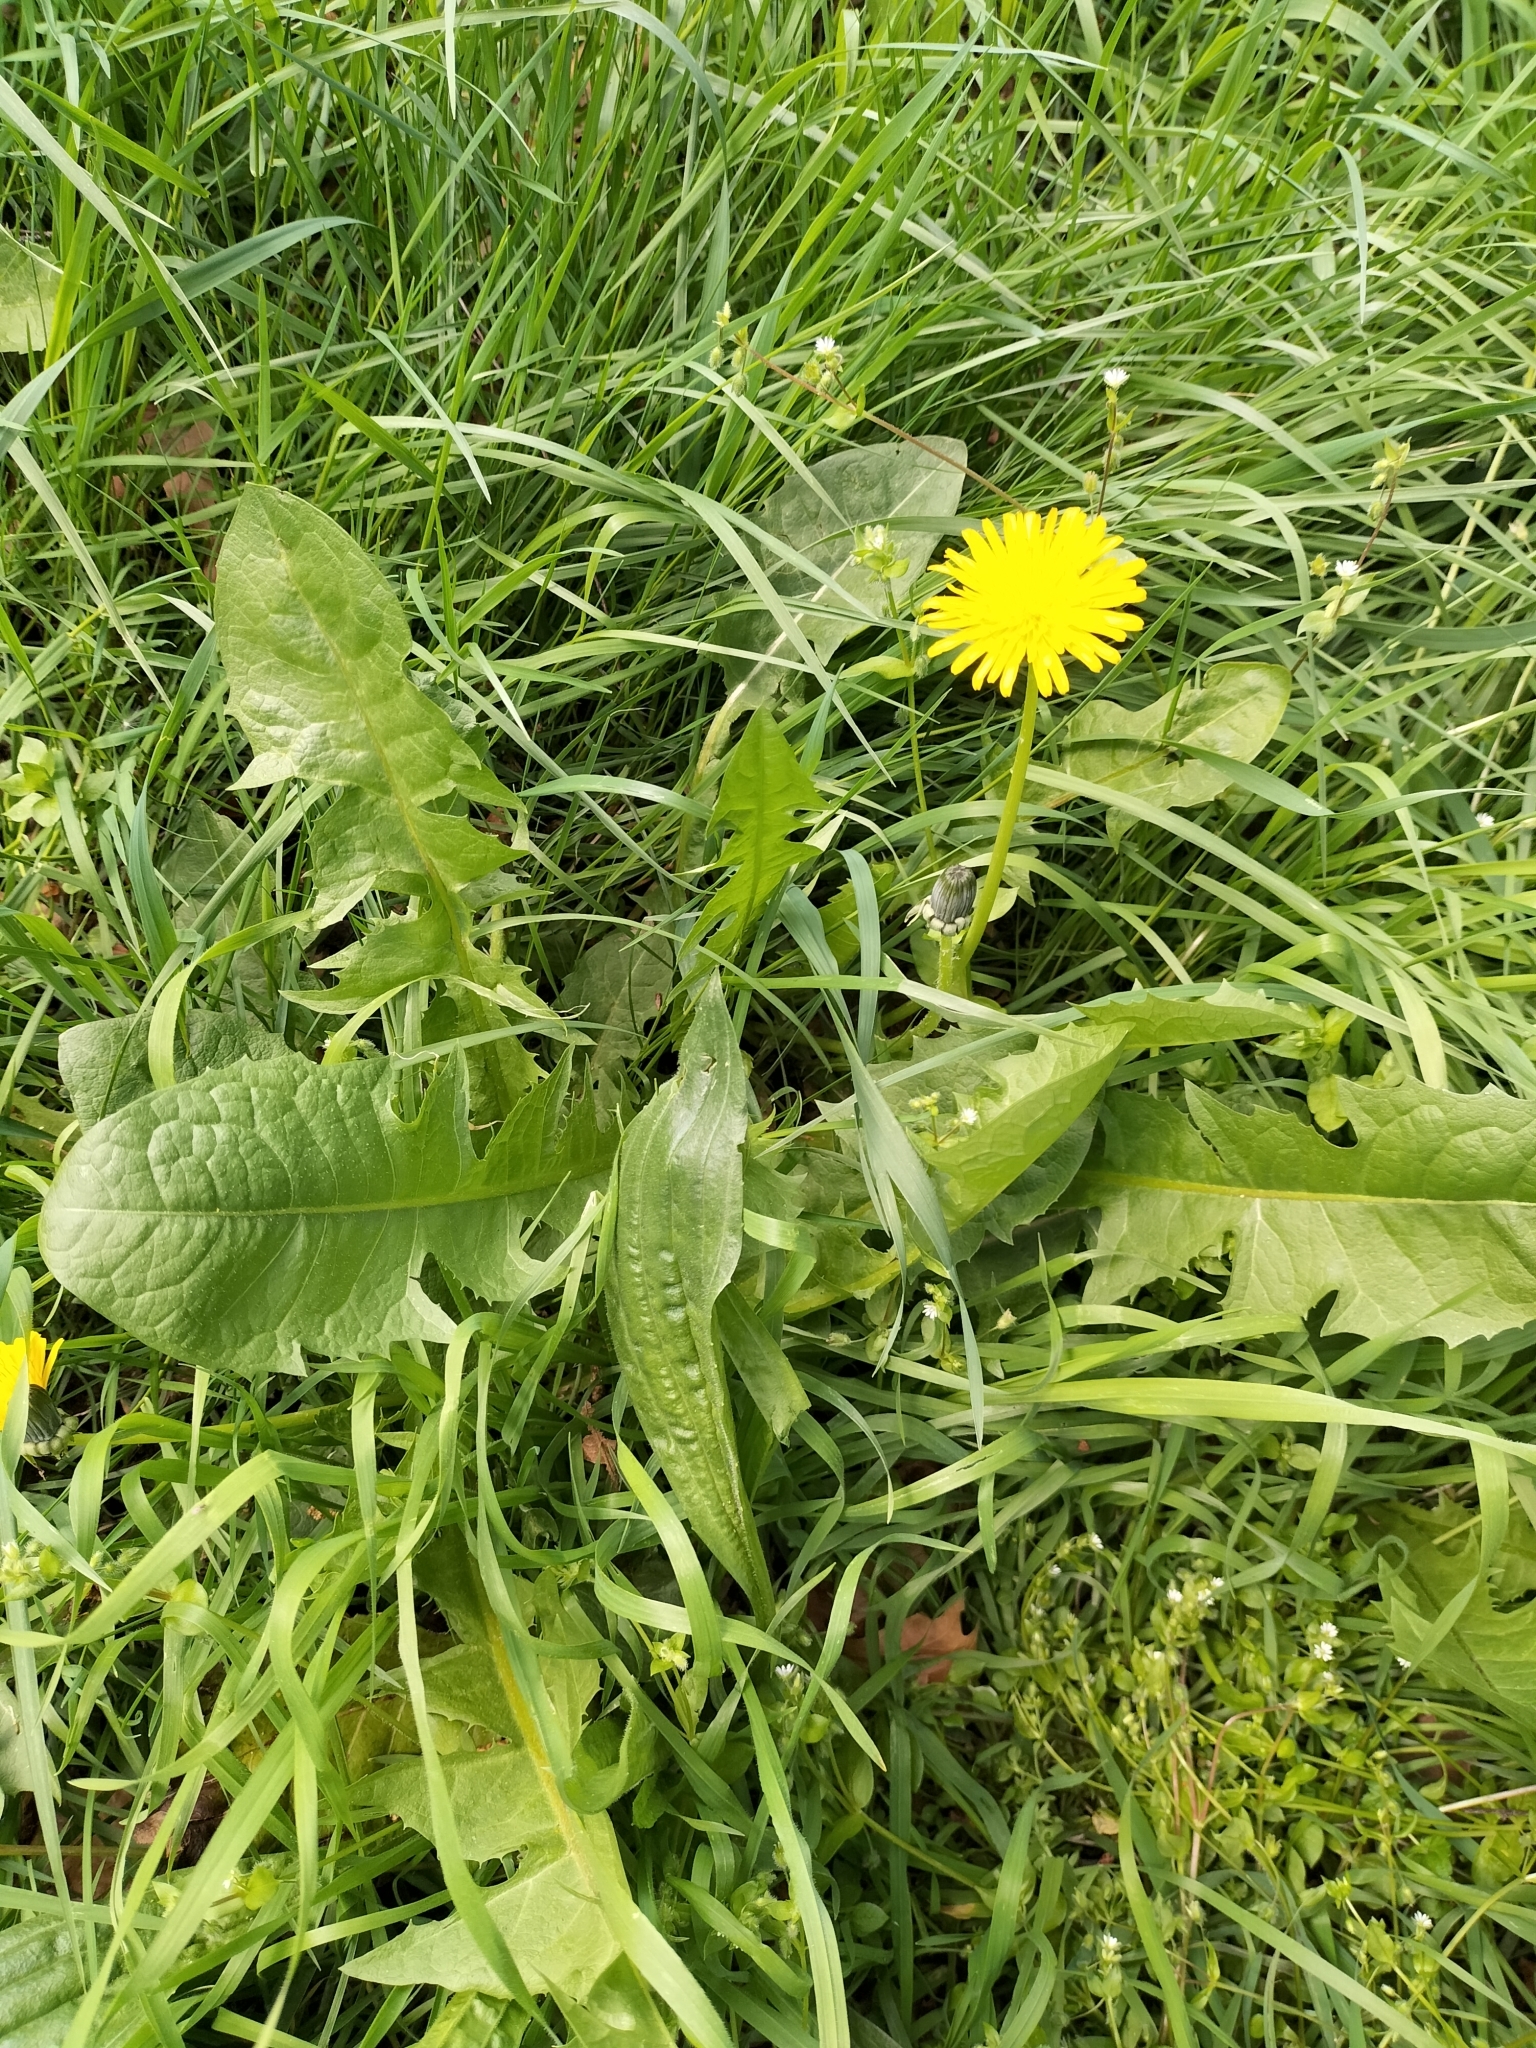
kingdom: Plantae
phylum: Tracheophyta
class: Magnoliopsida
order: Asterales
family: Asteraceae
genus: Taraxacum
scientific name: Taraxacum officinale
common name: Common dandelion
